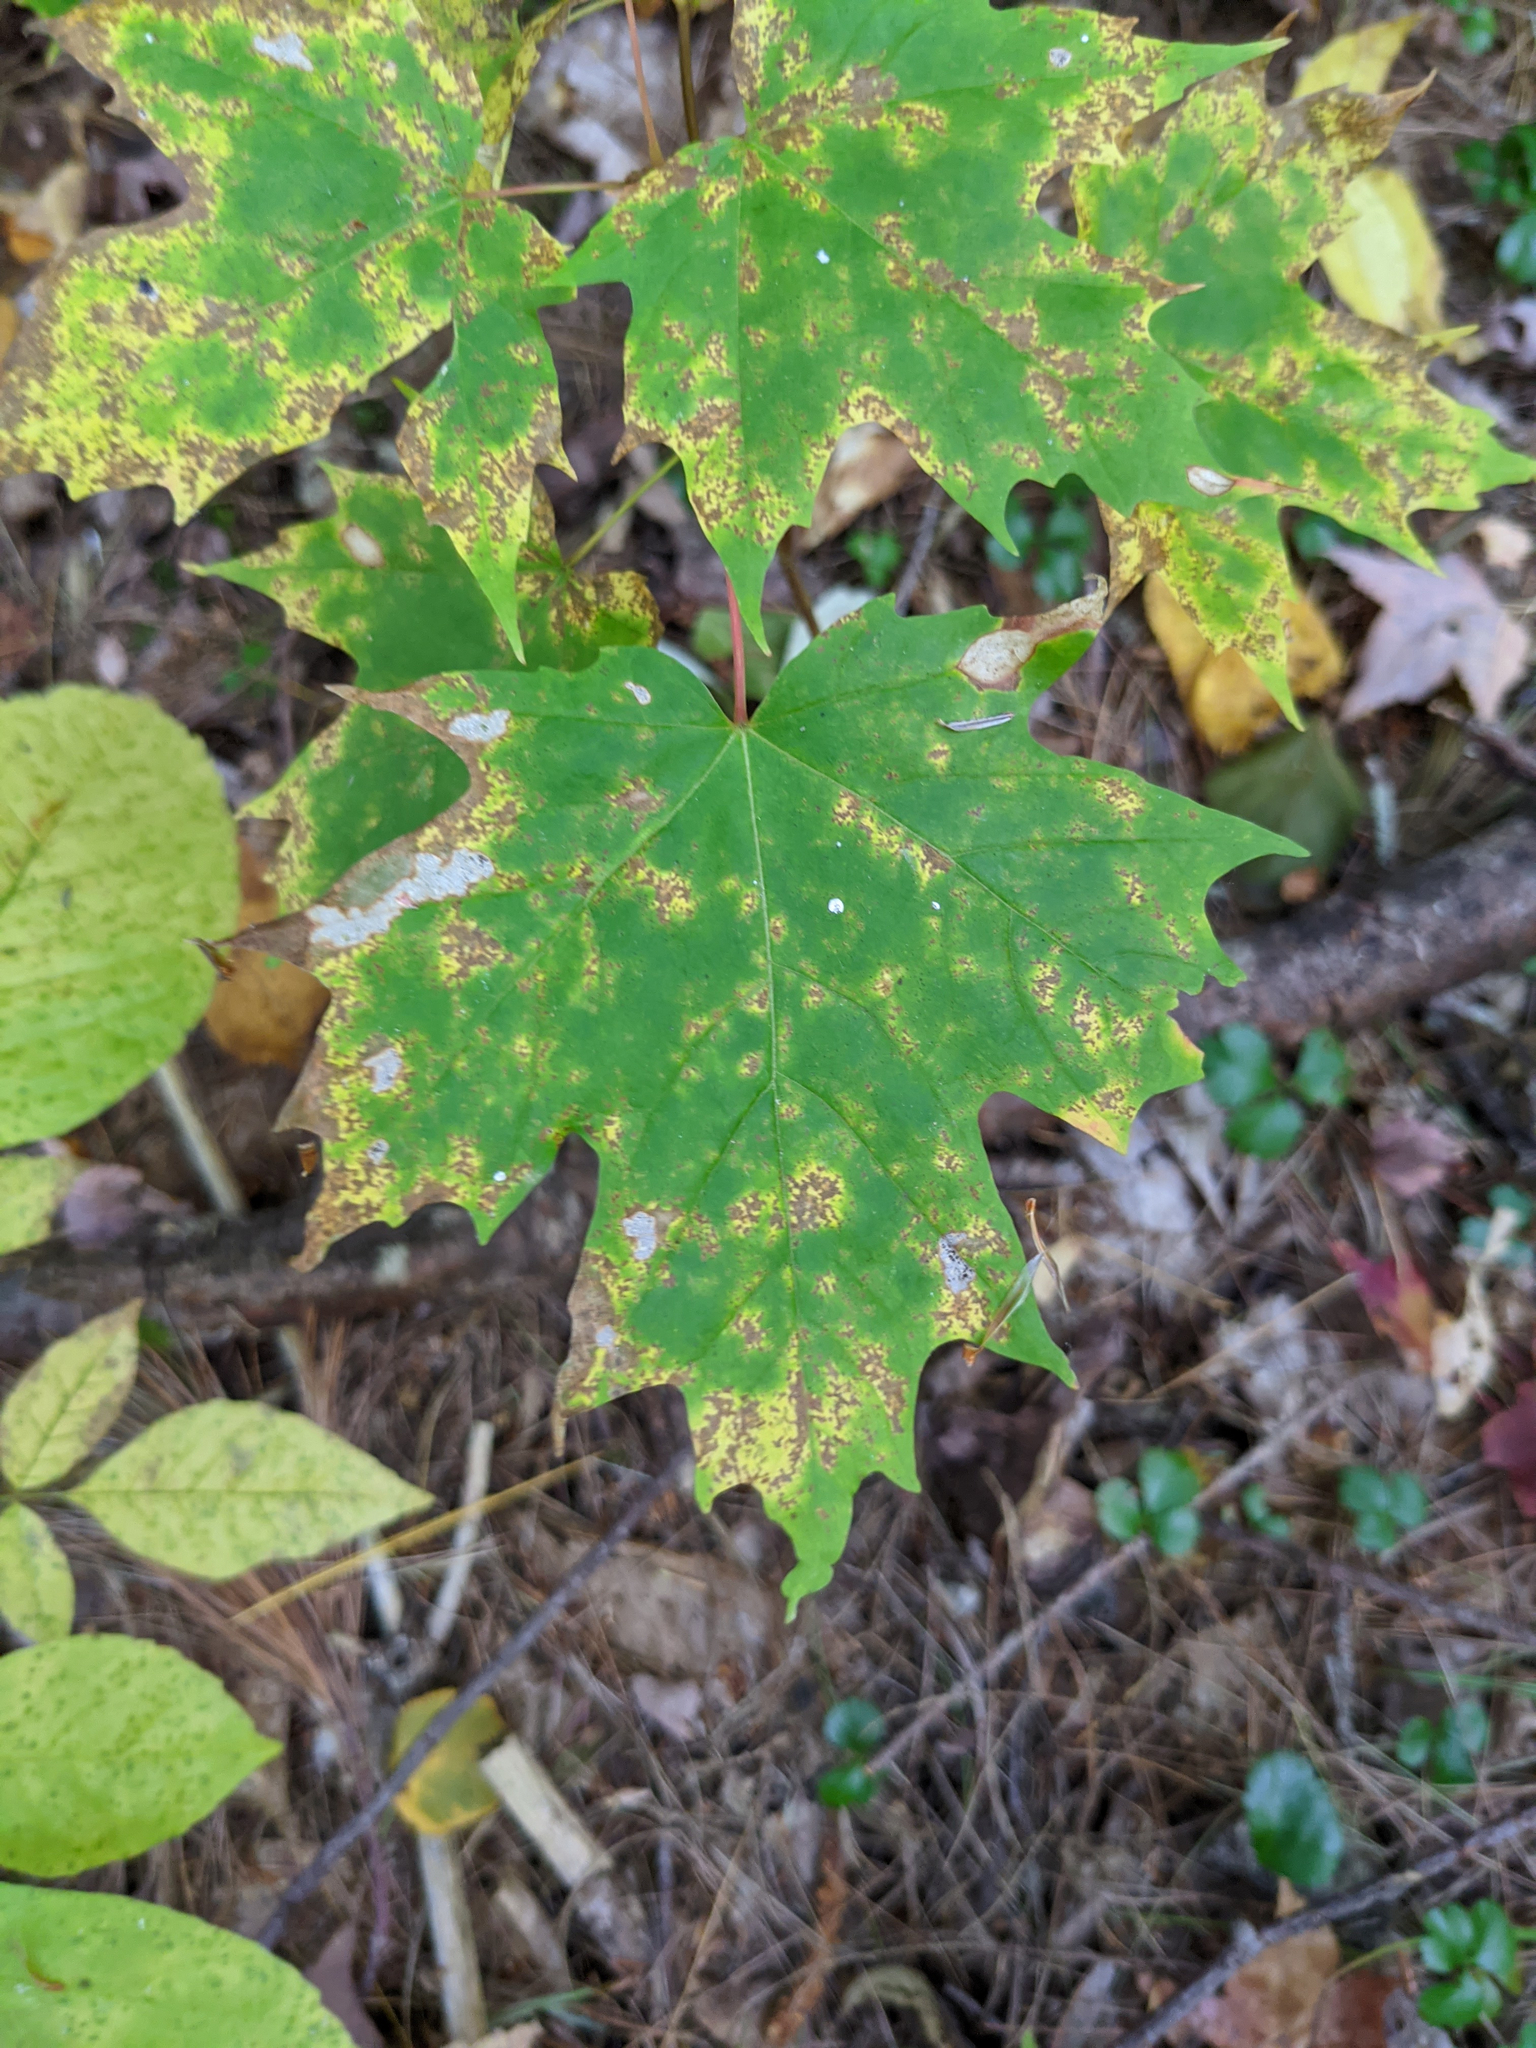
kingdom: Plantae
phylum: Tracheophyta
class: Magnoliopsida
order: Sapindales
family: Sapindaceae
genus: Acer
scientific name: Acer saccharum
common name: Sugar maple
